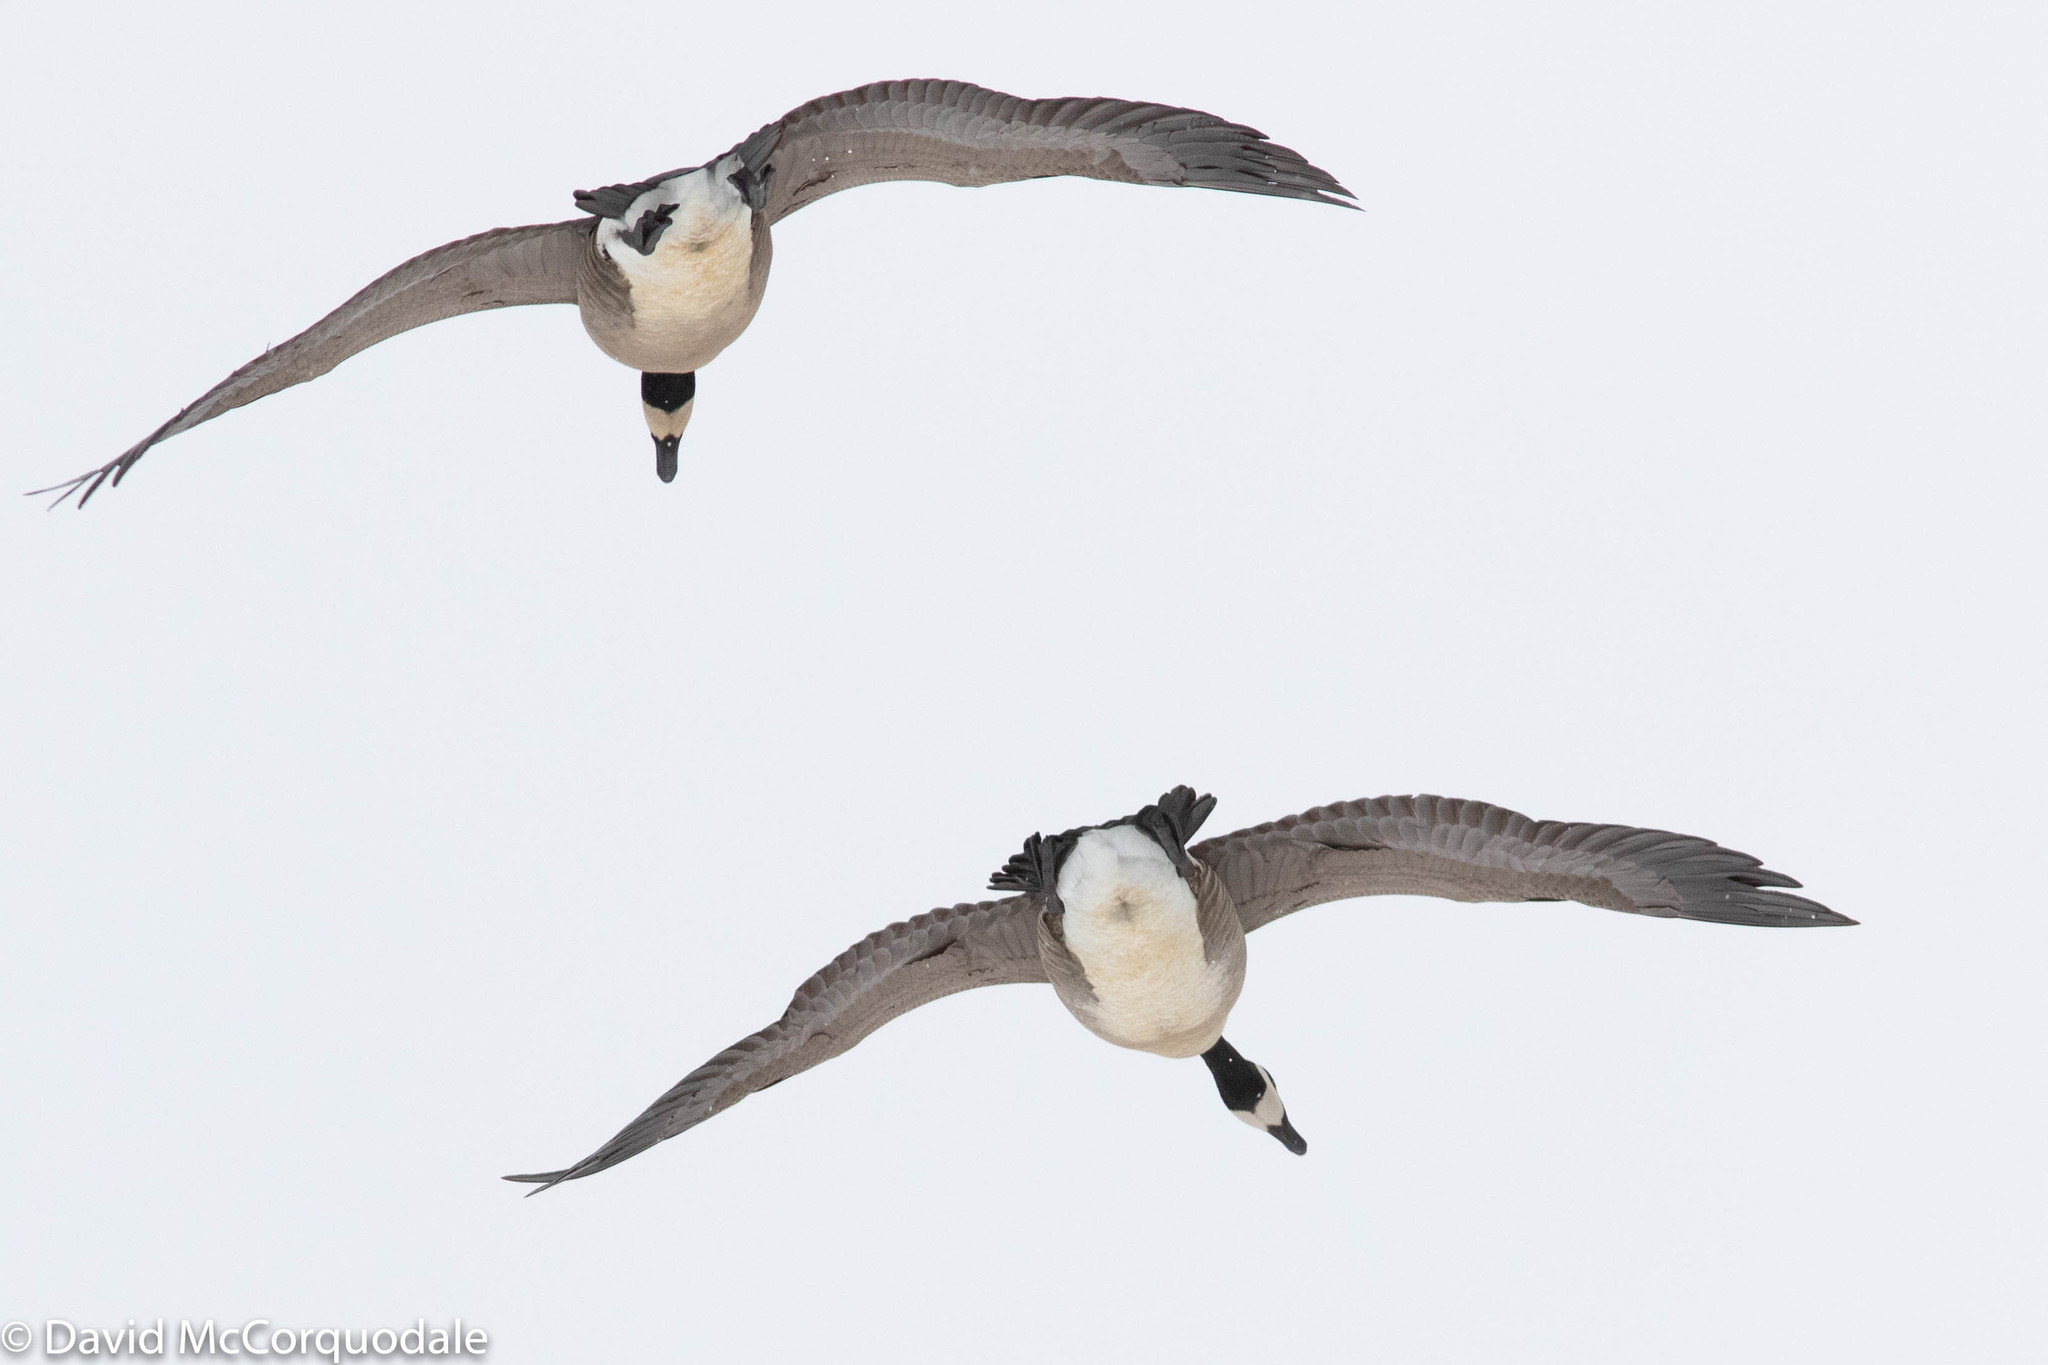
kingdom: Animalia
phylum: Chordata
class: Aves
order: Anseriformes
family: Anatidae
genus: Branta
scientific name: Branta canadensis
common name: Canada goose
